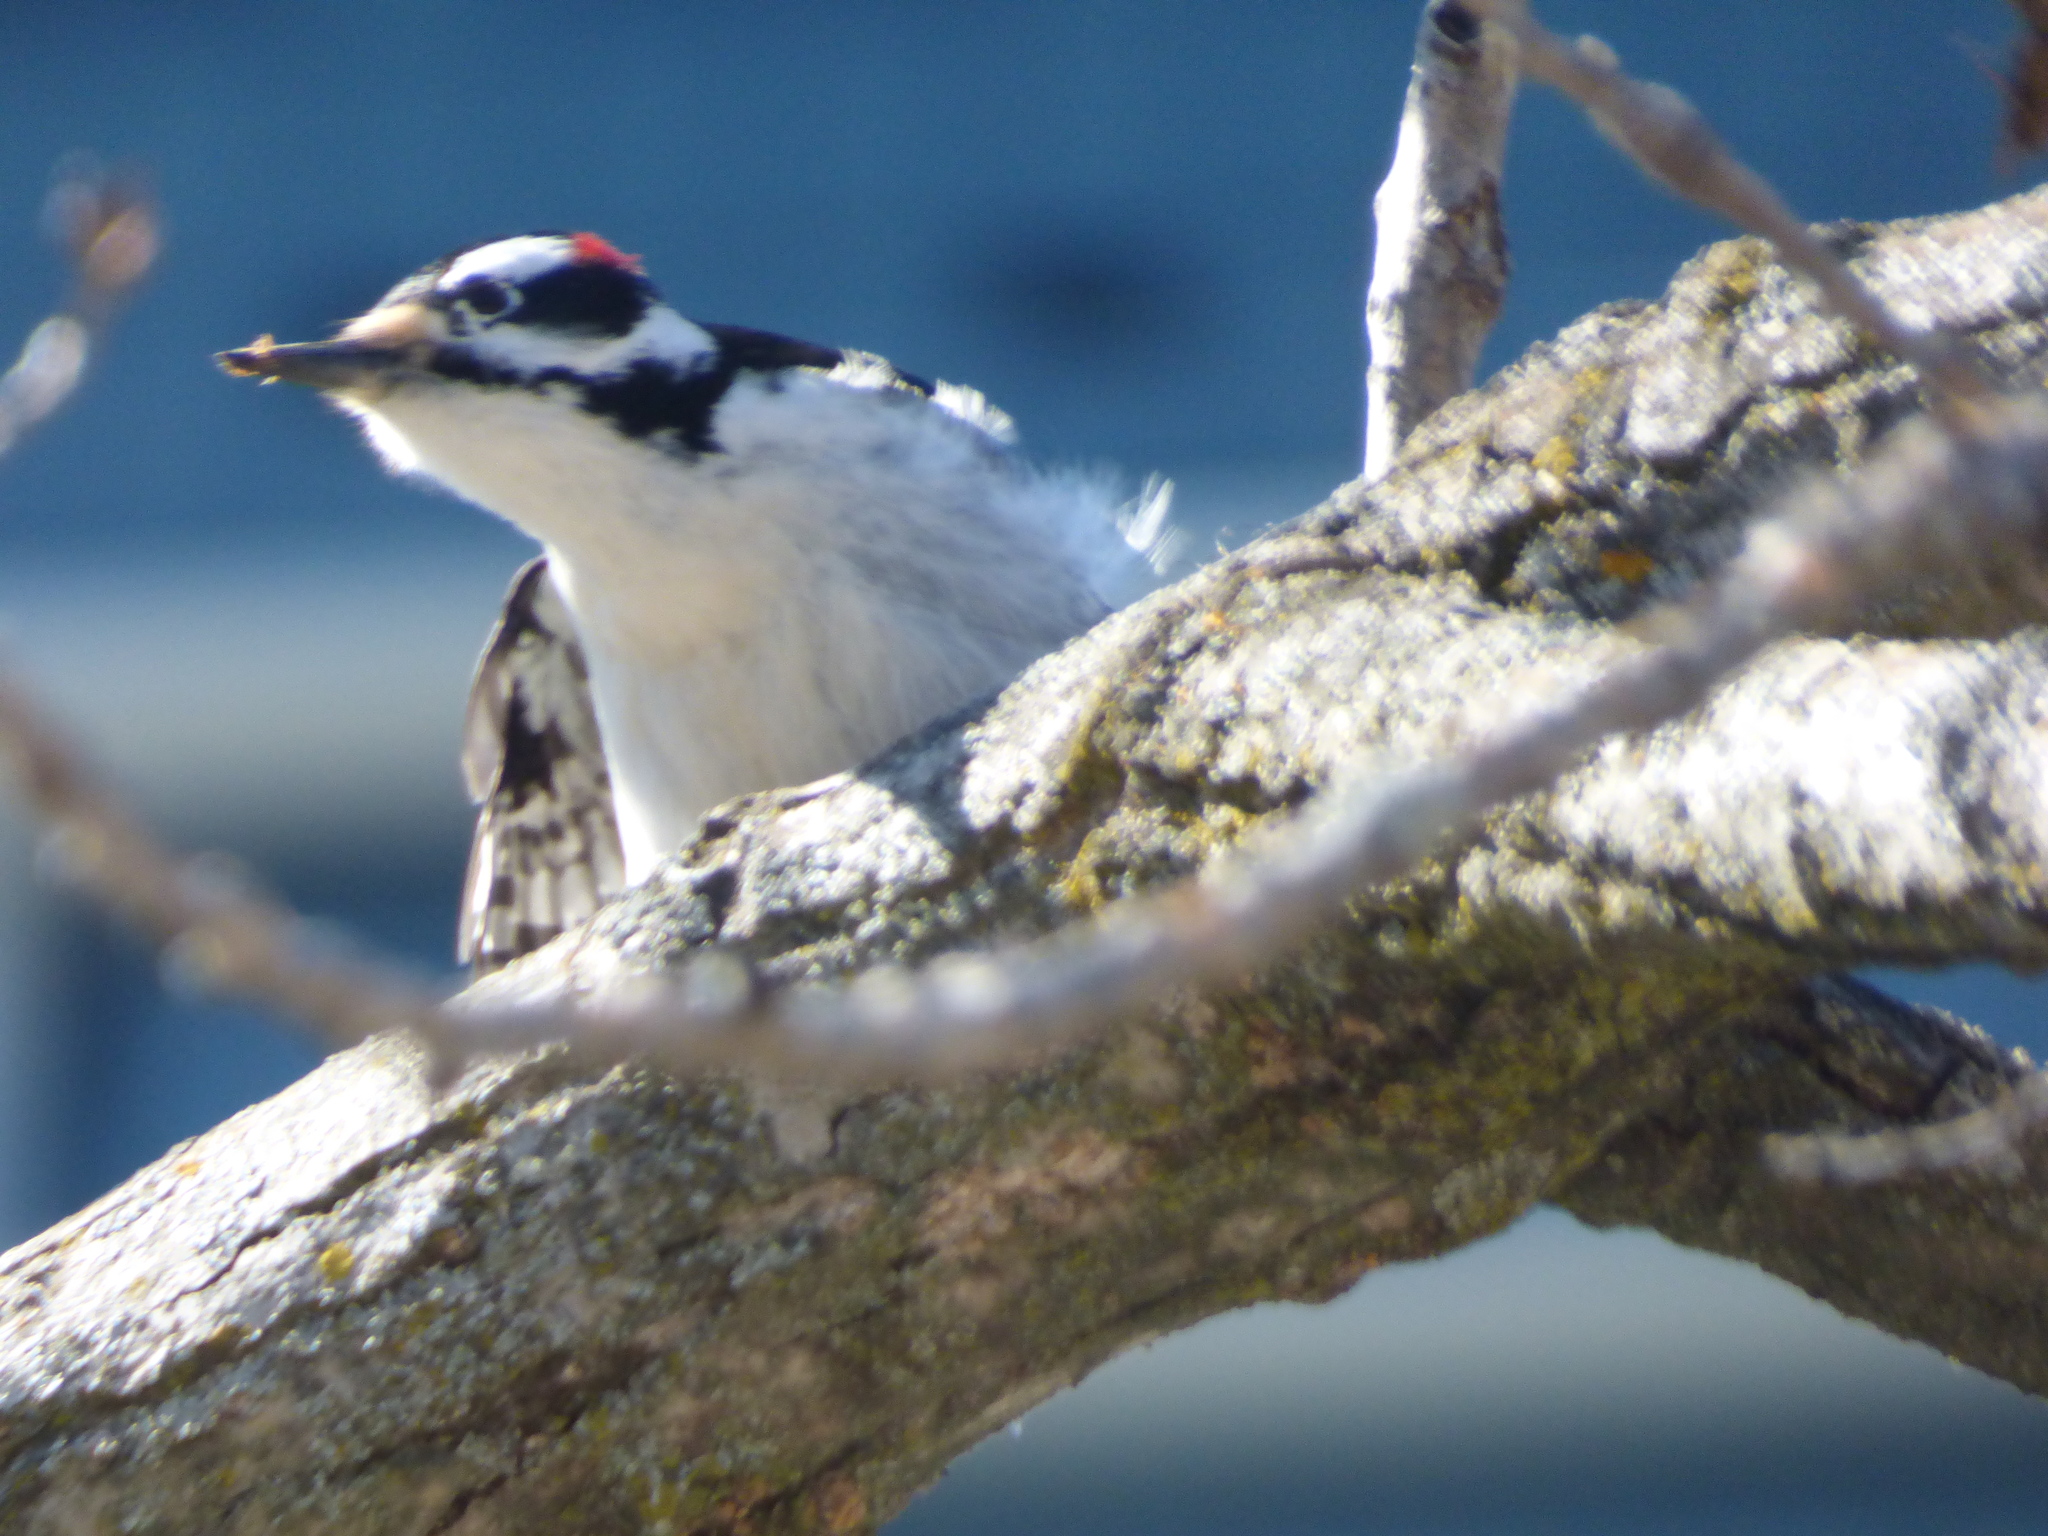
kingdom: Animalia
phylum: Chordata
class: Aves
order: Piciformes
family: Picidae
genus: Leuconotopicus
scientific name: Leuconotopicus villosus
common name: Hairy woodpecker
